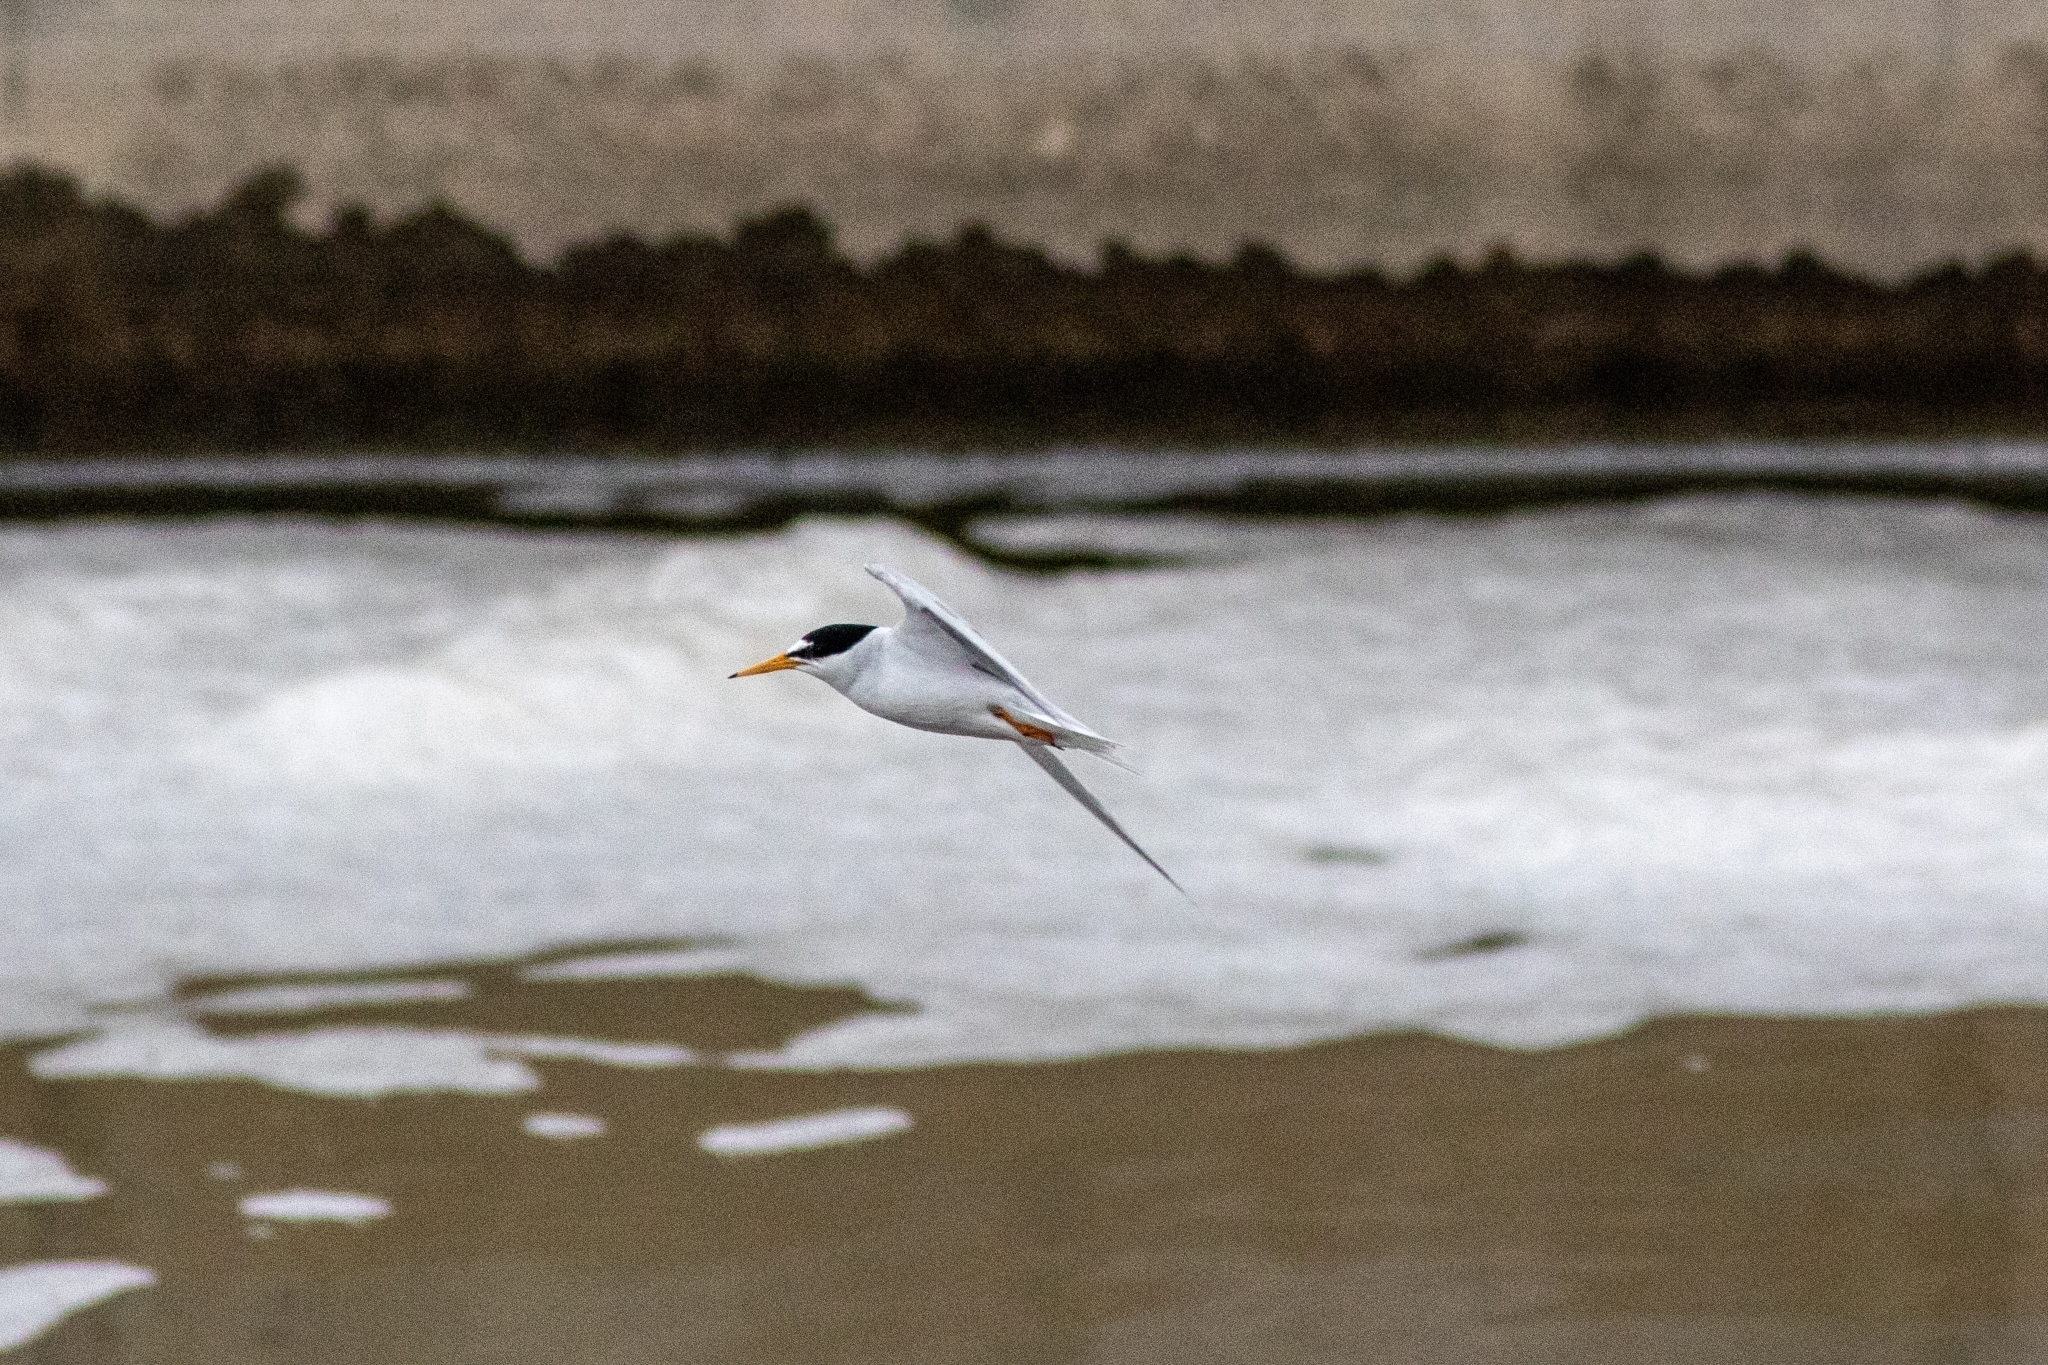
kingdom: Animalia
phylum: Chordata
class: Aves
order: Charadriiformes
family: Laridae
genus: Sternula
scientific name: Sternula antillarum
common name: Least tern
